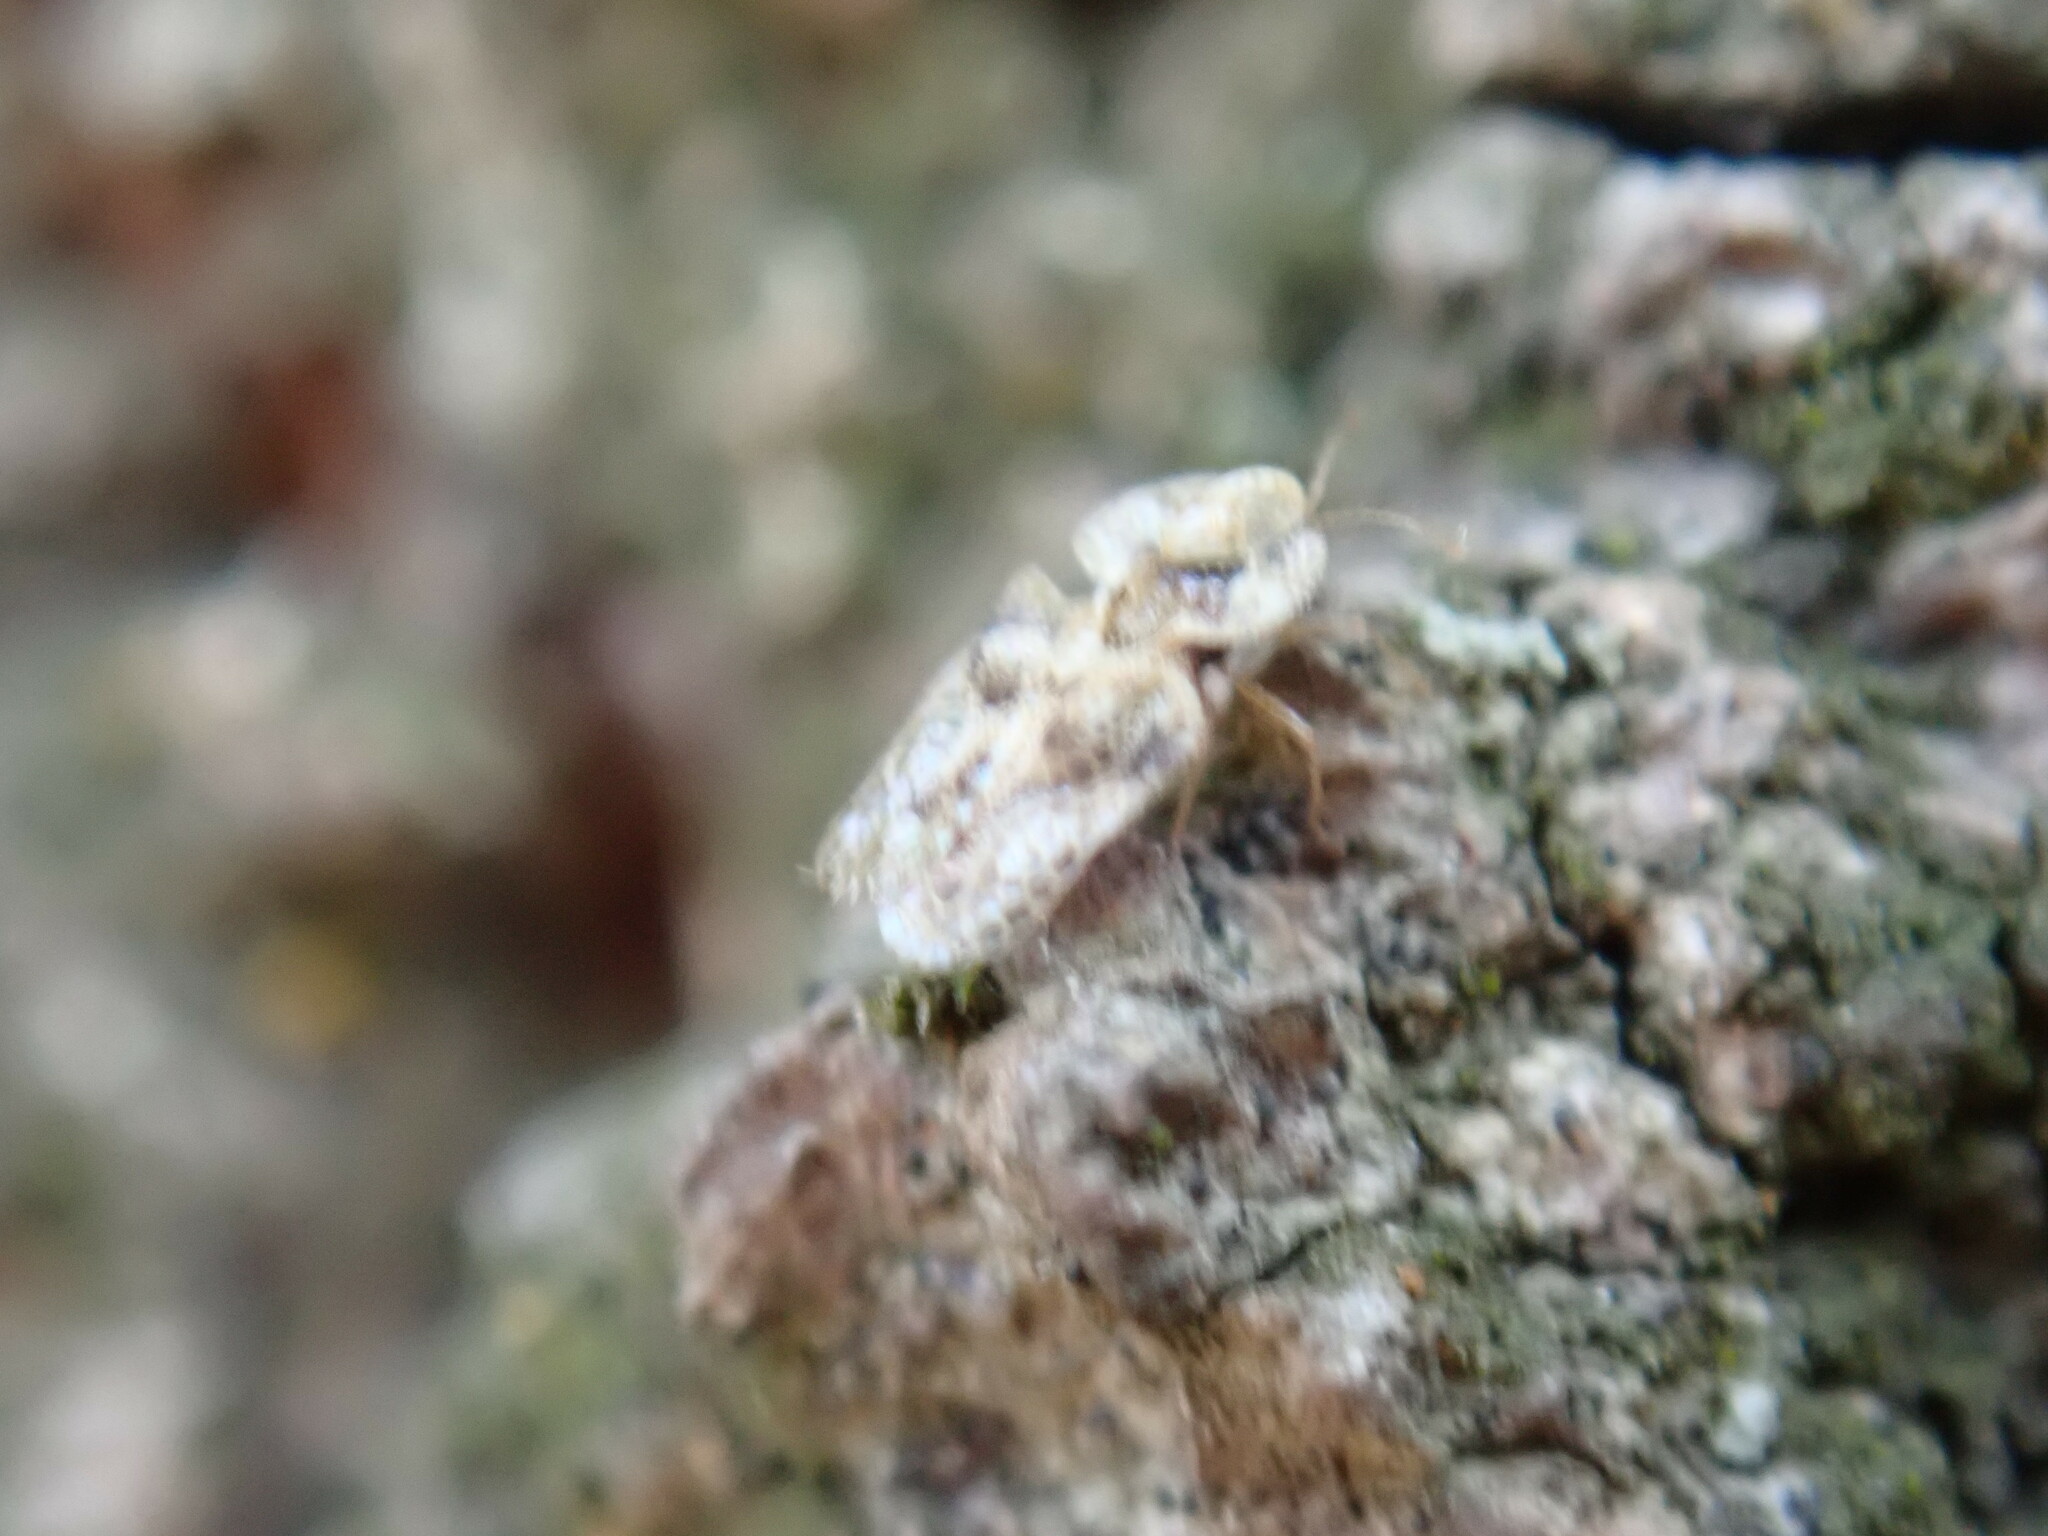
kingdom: Animalia
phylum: Arthropoda
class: Insecta
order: Hemiptera
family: Tingidae
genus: Corythucha
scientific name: Corythucha arcuata
